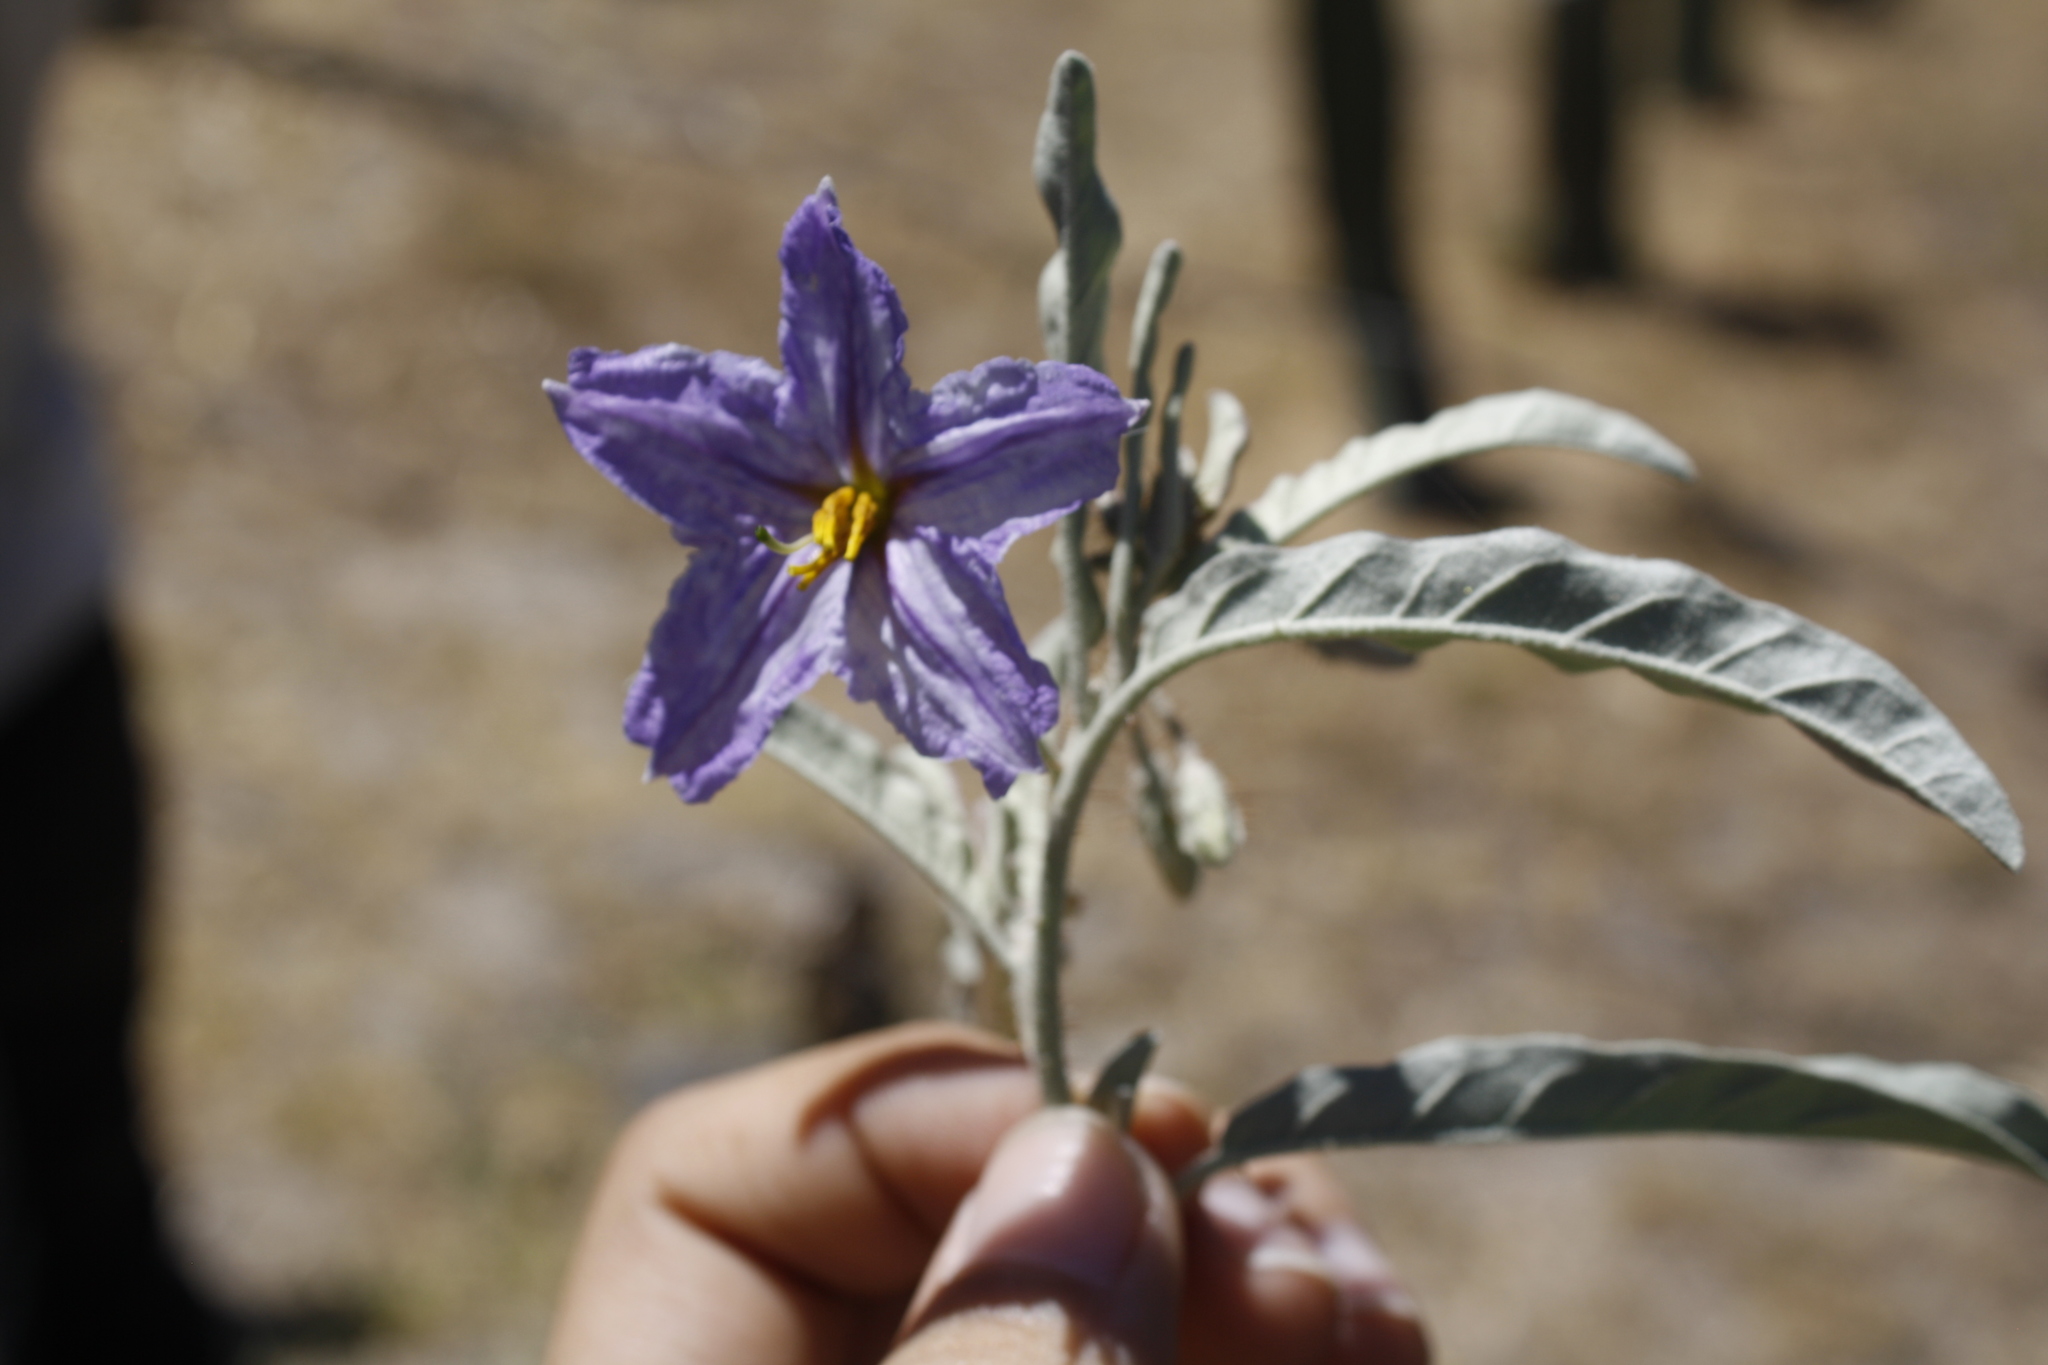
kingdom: Plantae
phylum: Tracheophyta
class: Magnoliopsida
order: Solanales
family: Solanaceae
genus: Solanum
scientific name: Solanum elaeagnifolium
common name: Silverleaf nightshade
